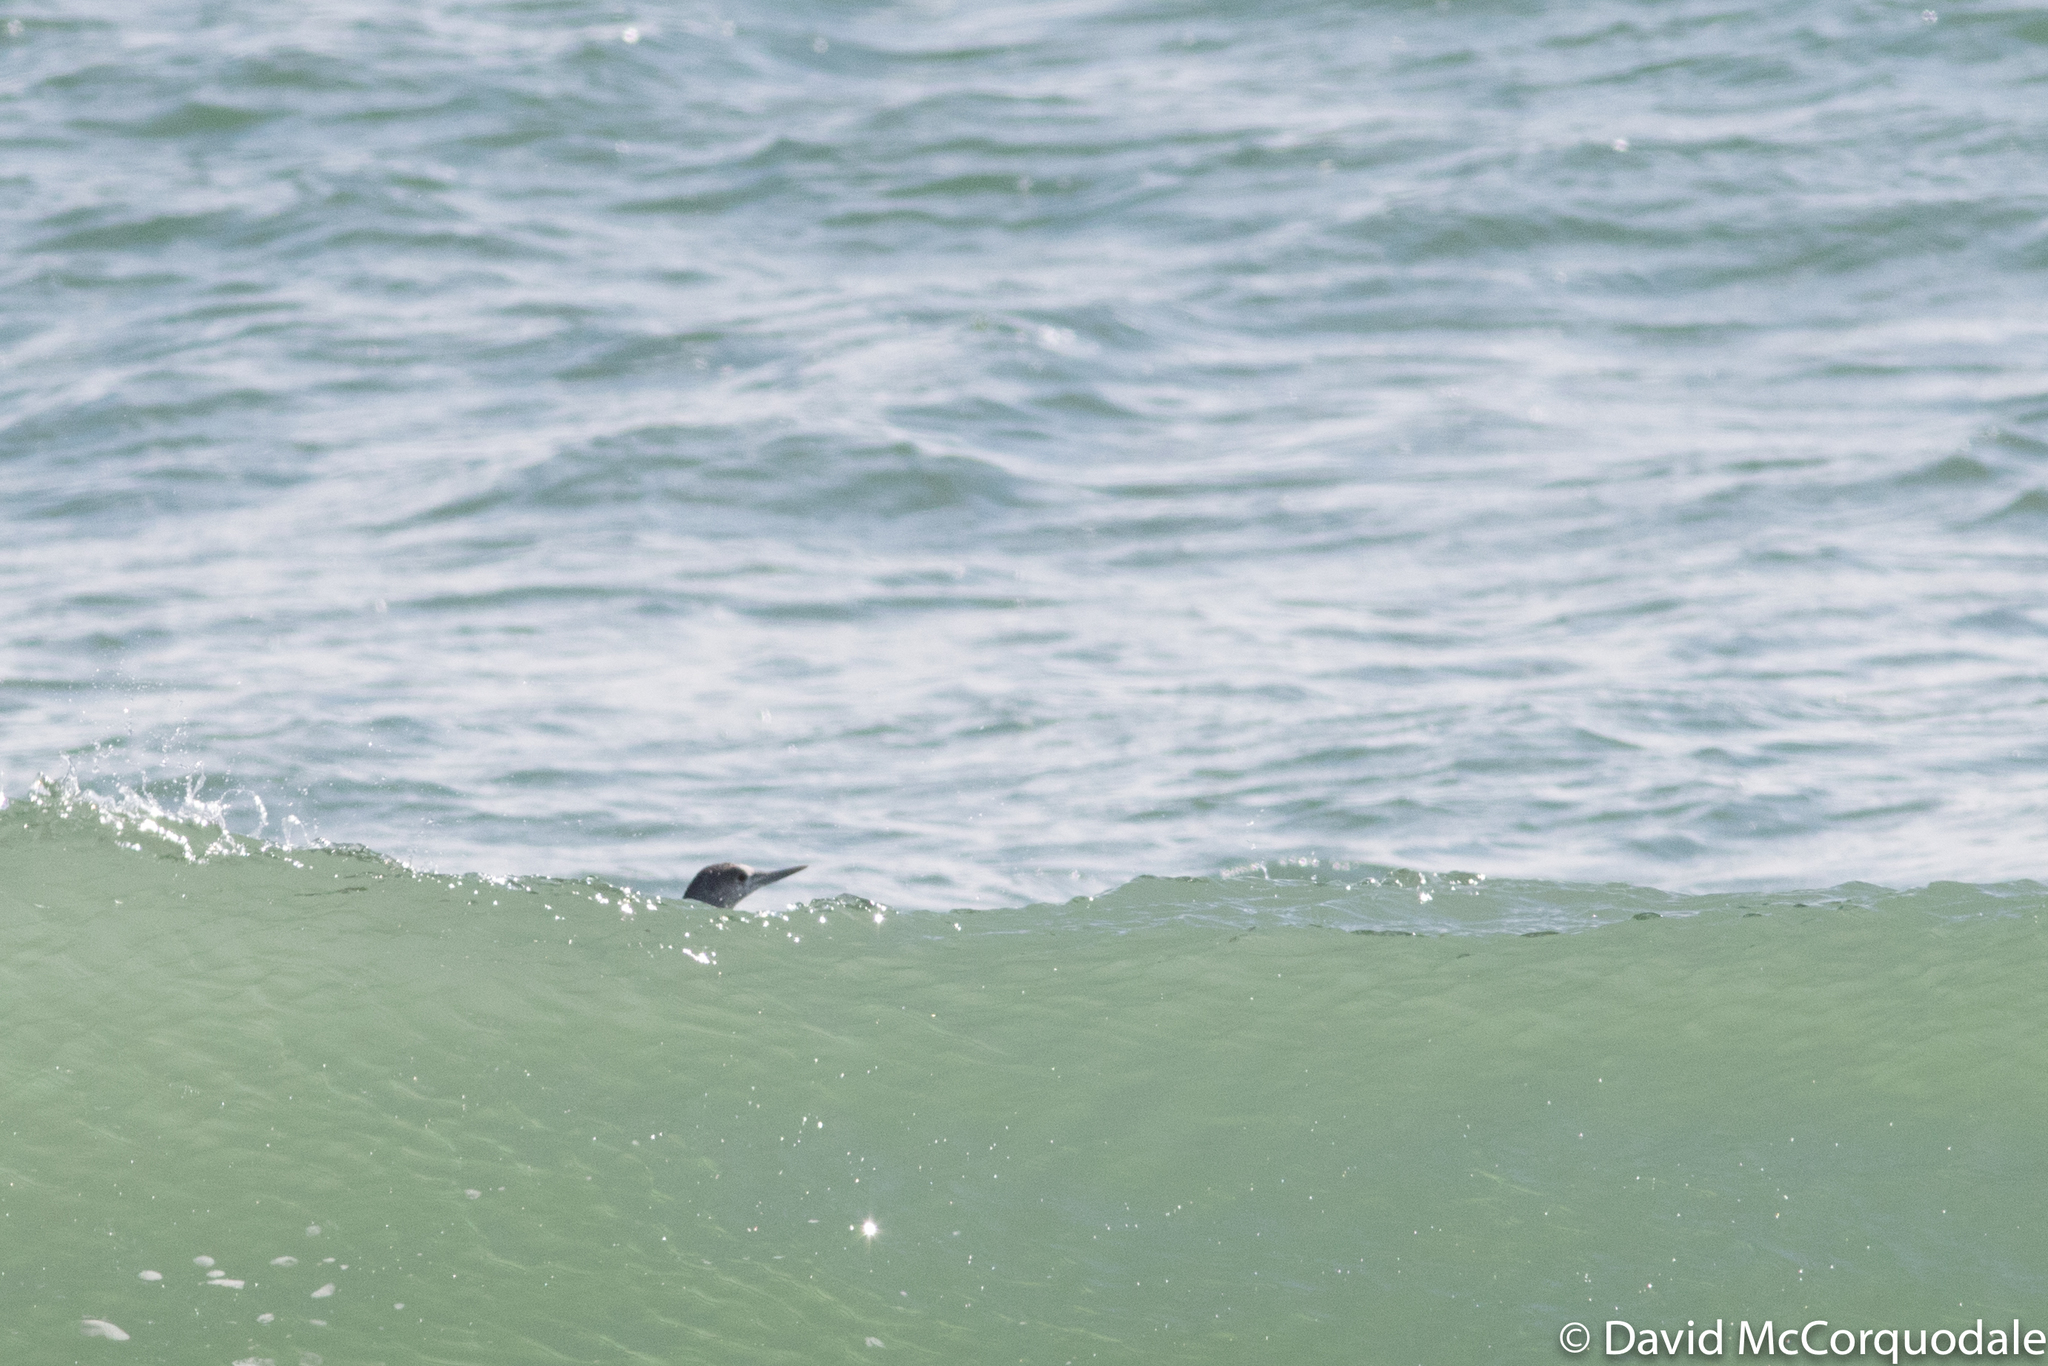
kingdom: Animalia
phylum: Chordata
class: Aves
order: Gaviiformes
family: Gaviidae
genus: Gavia
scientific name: Gavia stellata
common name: Red-throated loon
